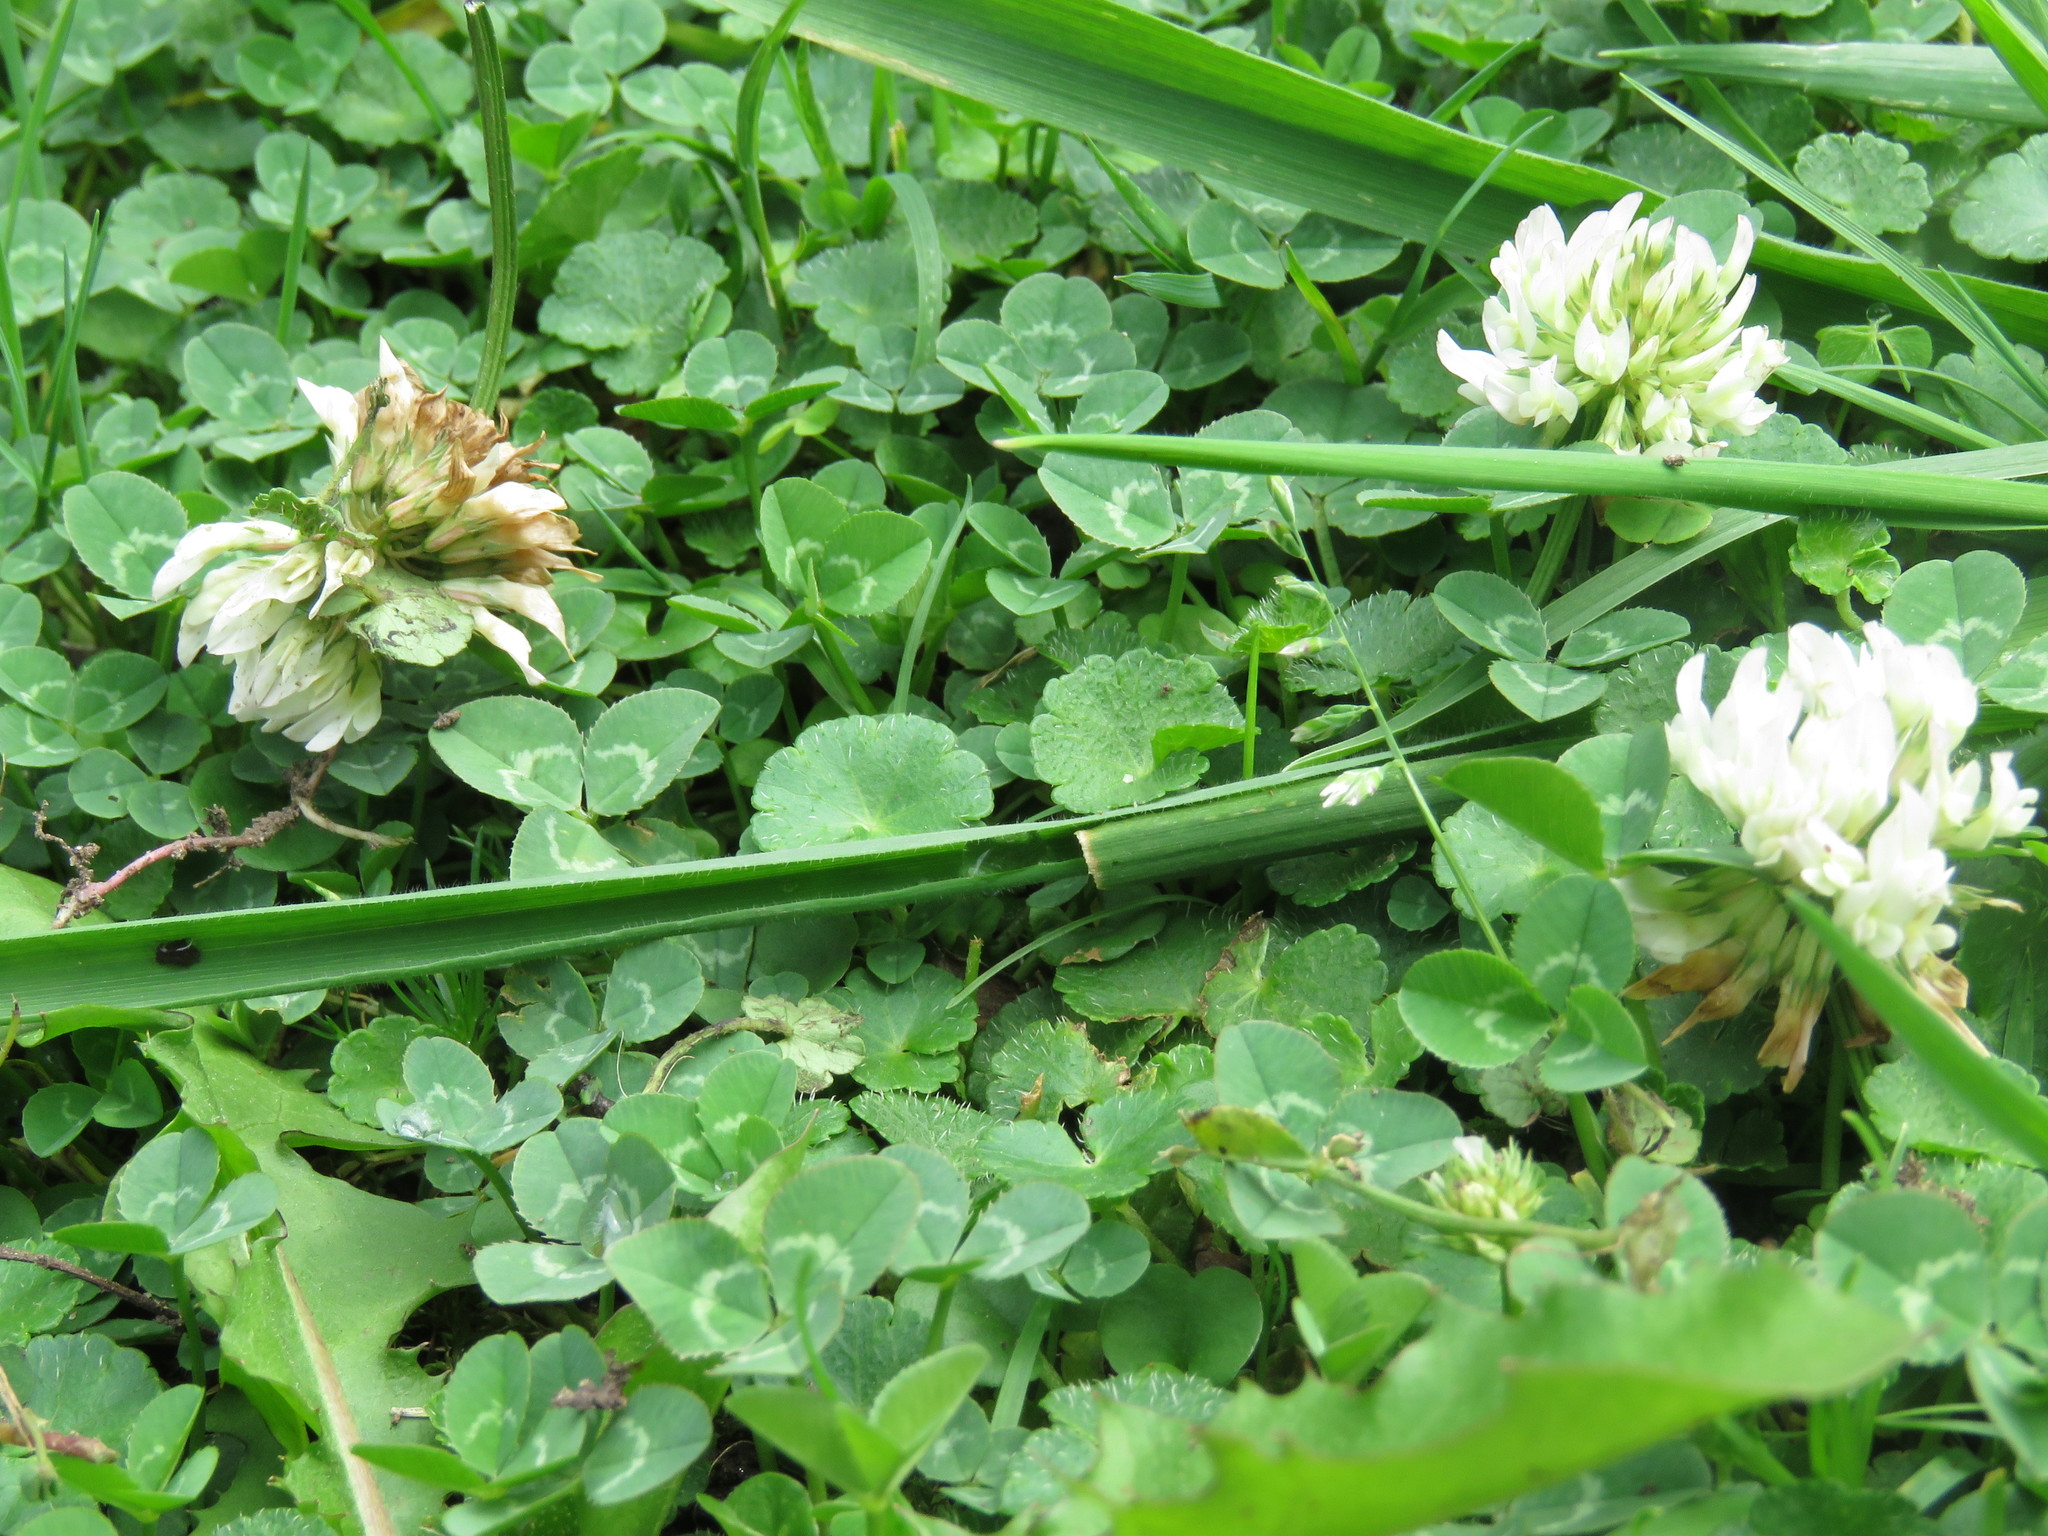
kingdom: Plantae
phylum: Tracheophyta
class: Magnoliopsida
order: Fabales
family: Fabaceae
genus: Trifolium
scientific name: Trifolium repens
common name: White clover
